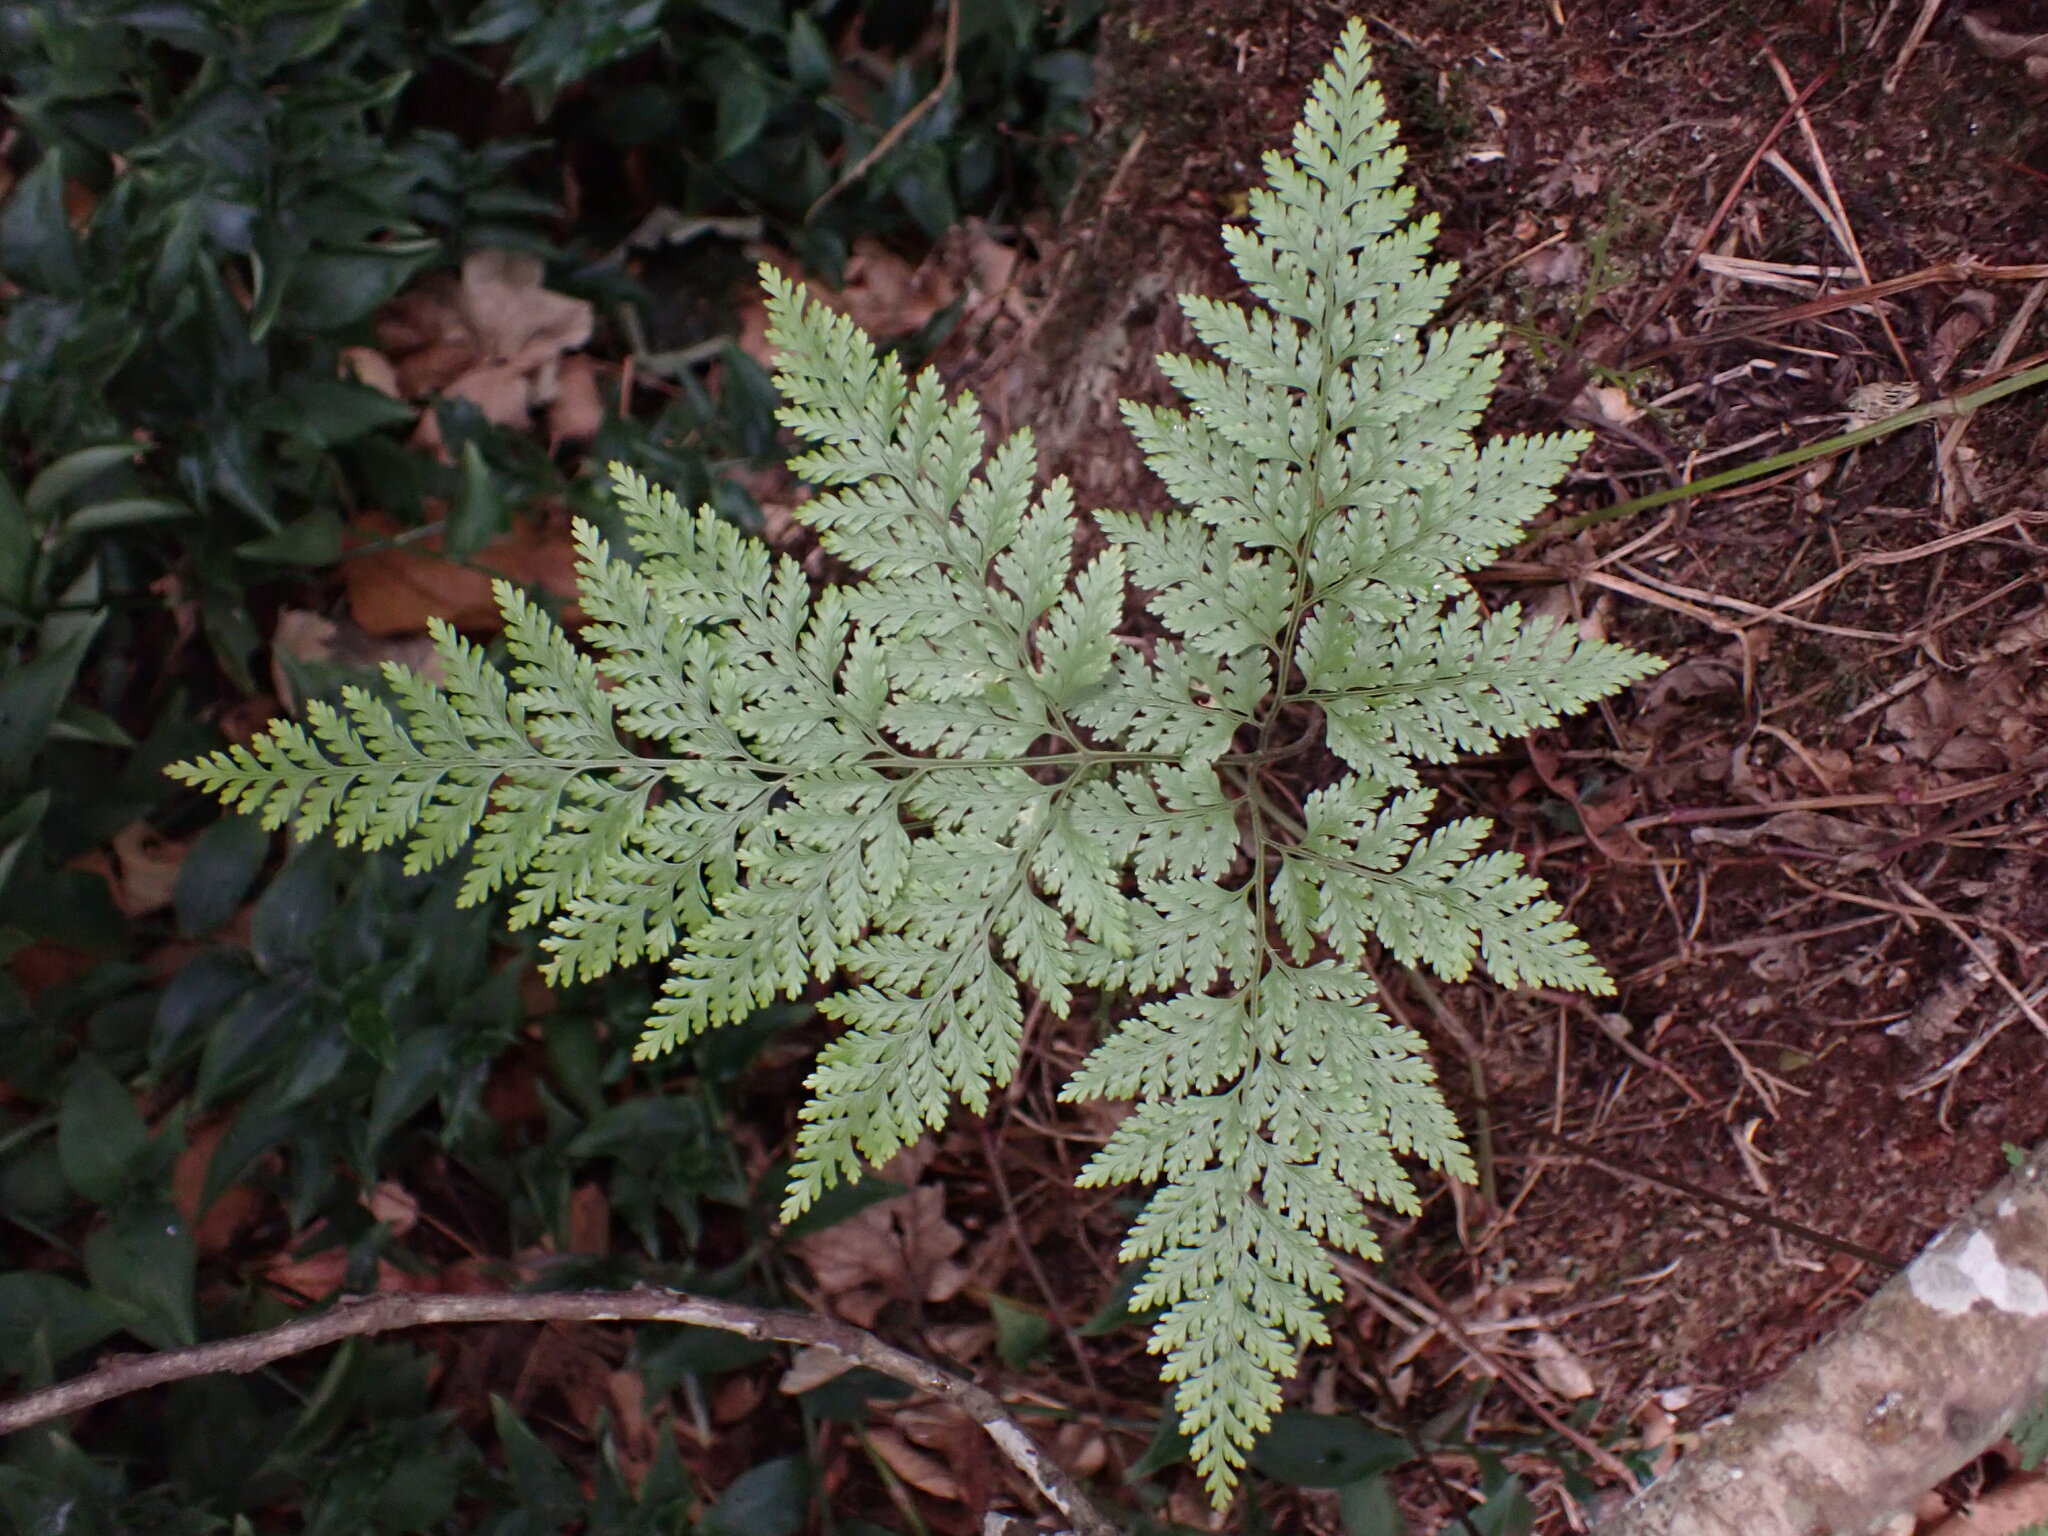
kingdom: Plantae
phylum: Tracheophyta
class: Polypodiopsida
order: Polypodiales
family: Davalliaceae
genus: Davallia
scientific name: Davallia canariensis
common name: Hare's-foot fern
